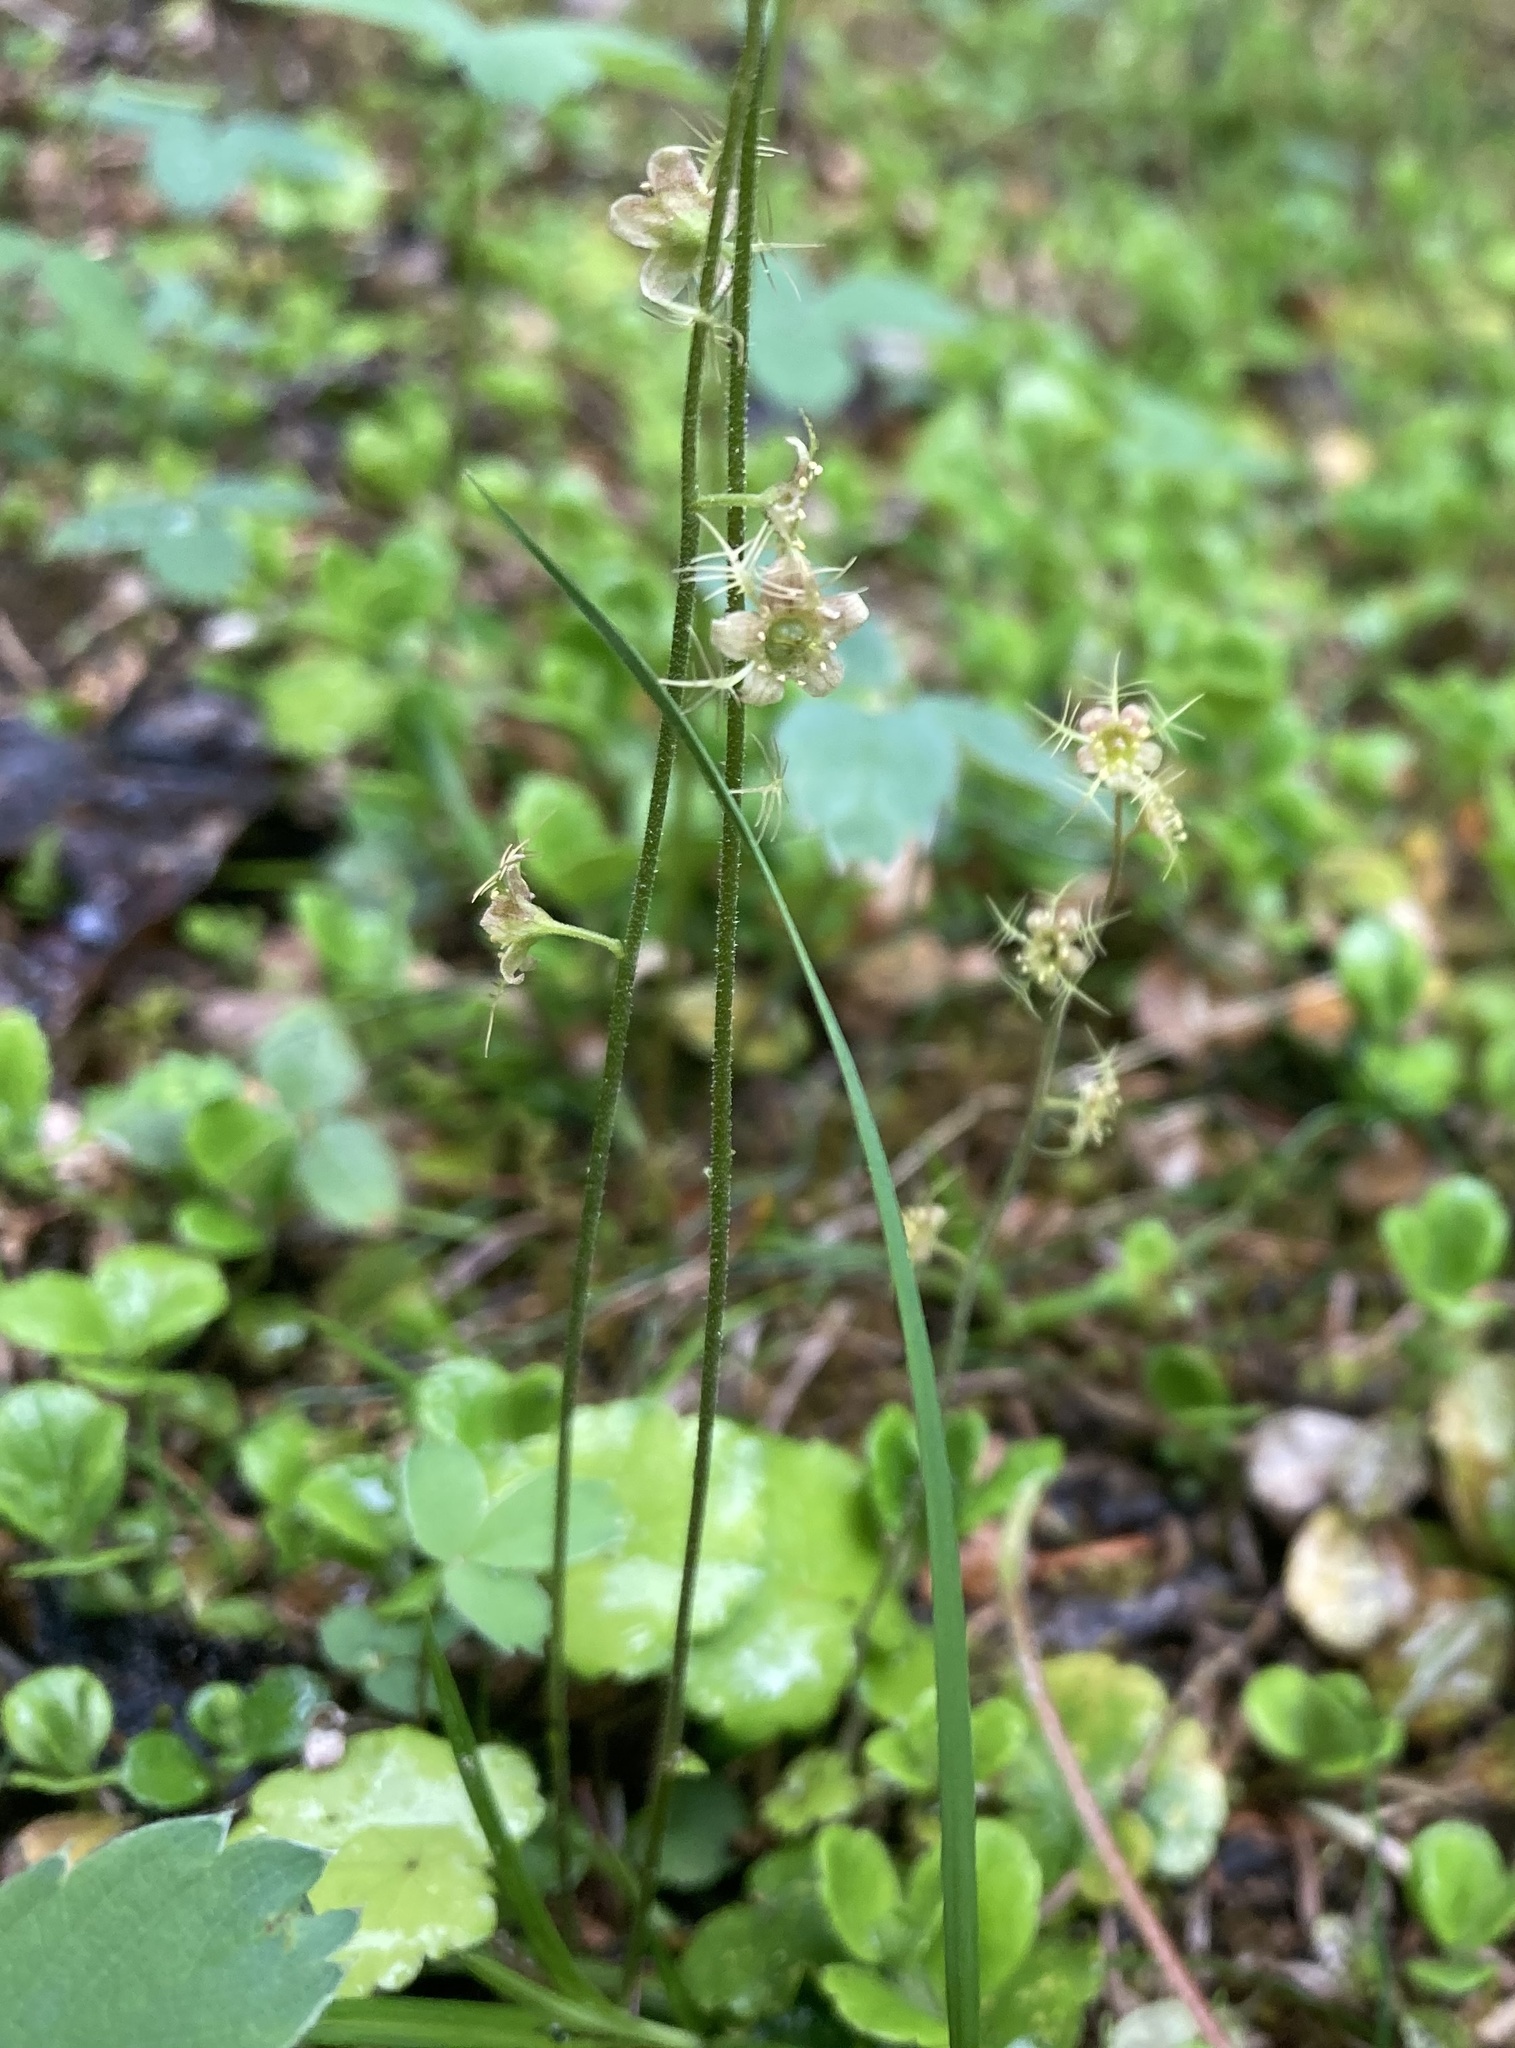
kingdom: Plantae
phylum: Tracheophyta
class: Magnoliopsida
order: Saxifragales
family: Saxifragaceae
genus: Mitella
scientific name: Mitella nuda
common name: Bare-stemmed bishop's-cap
